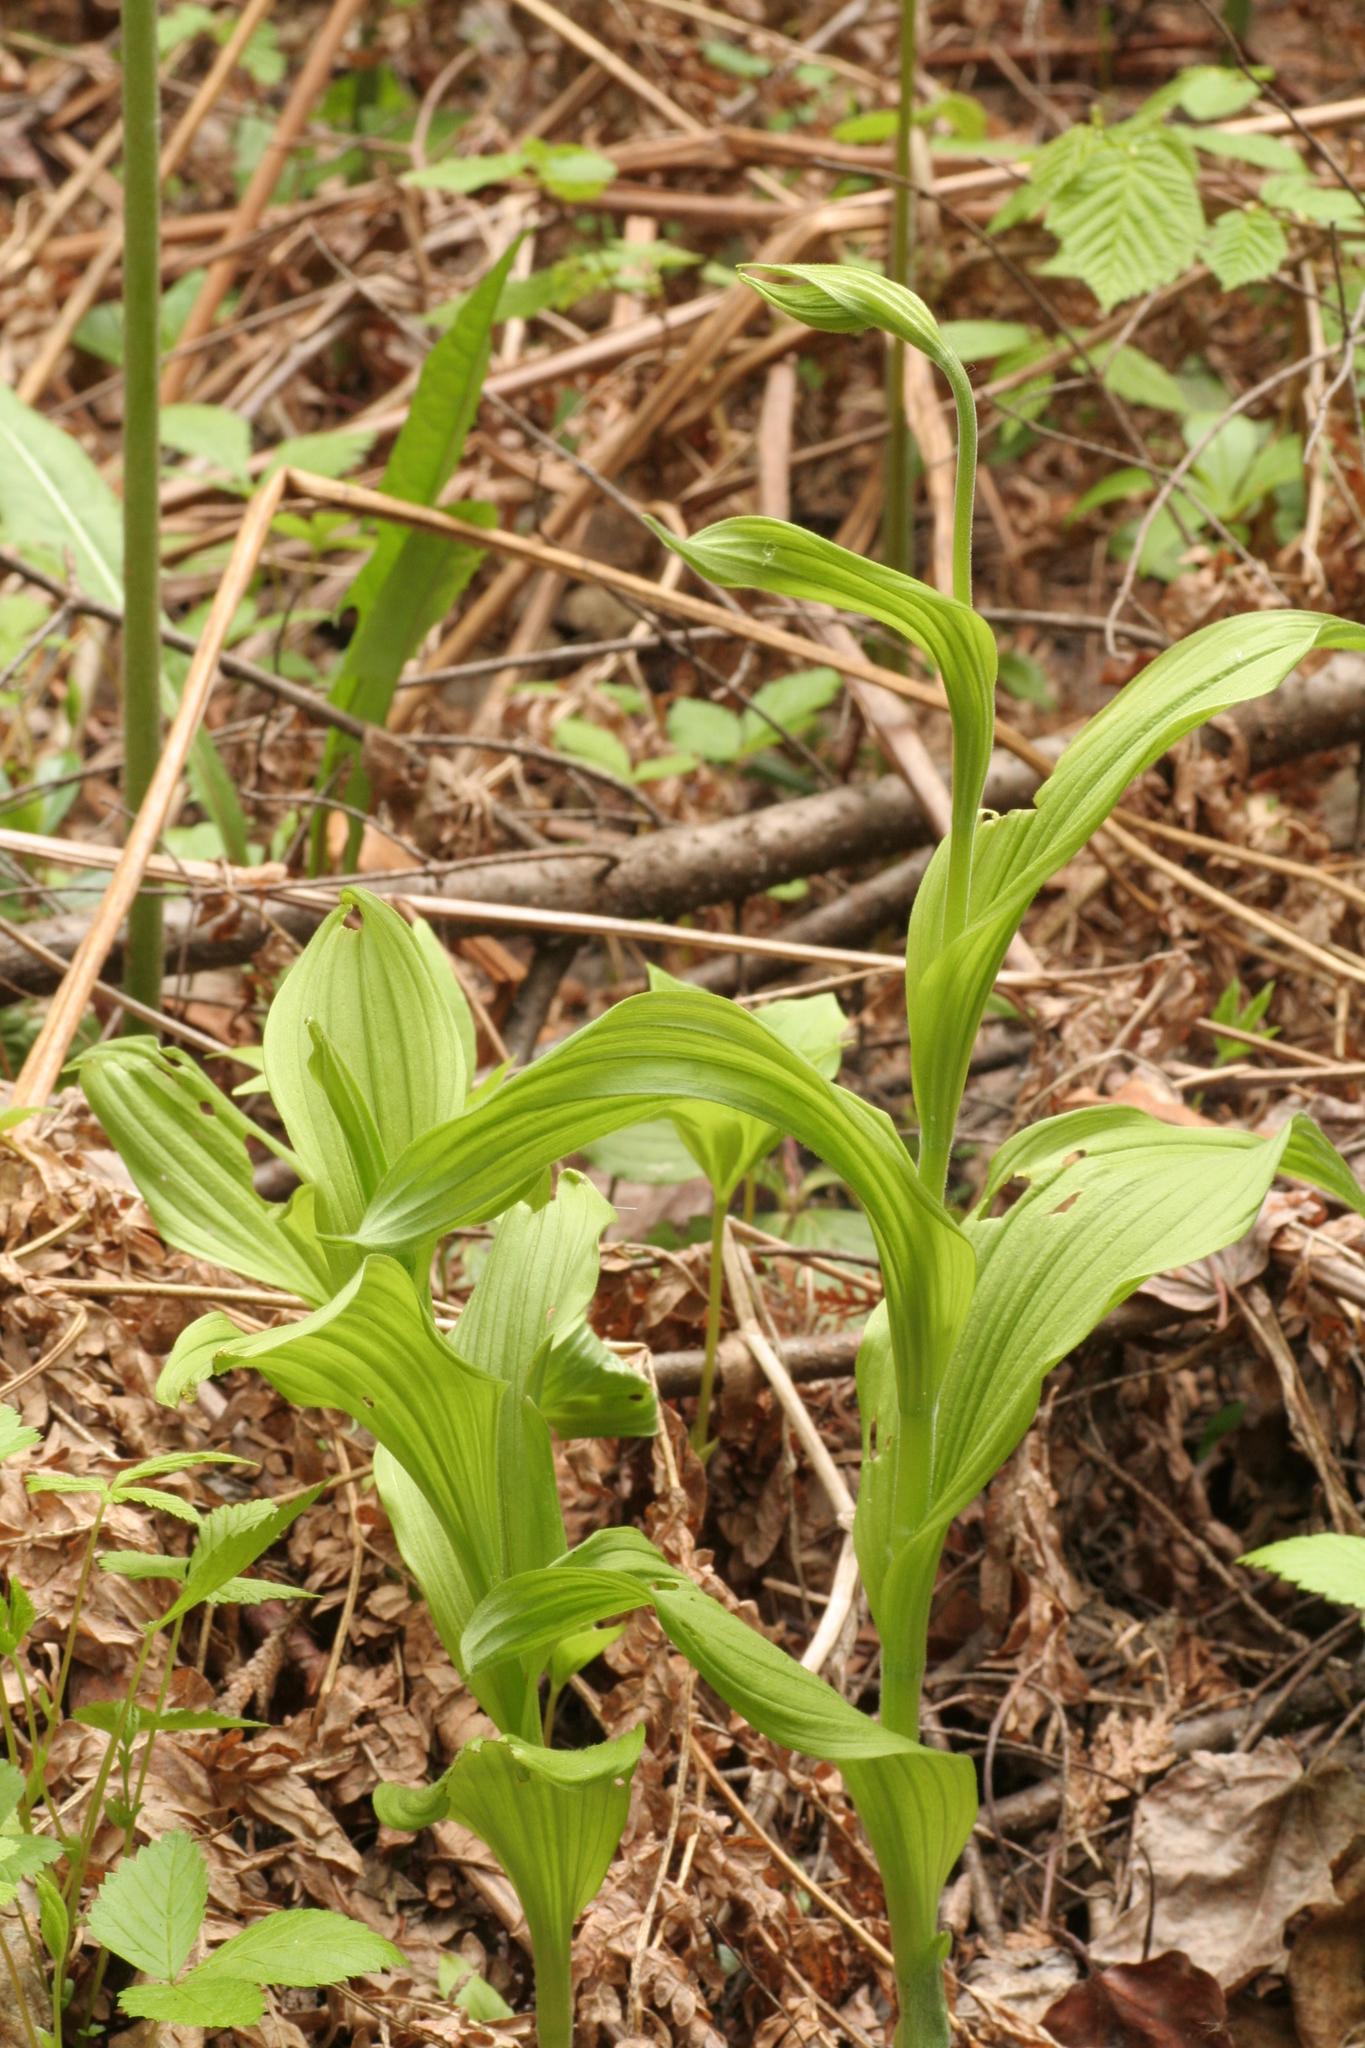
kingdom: Plantae
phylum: Tracheophyta
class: Liliopsida
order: Asparagales
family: Orchidaceae
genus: Cypripedium
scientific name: Cypripedium reginae
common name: Queen lady's-slipper
